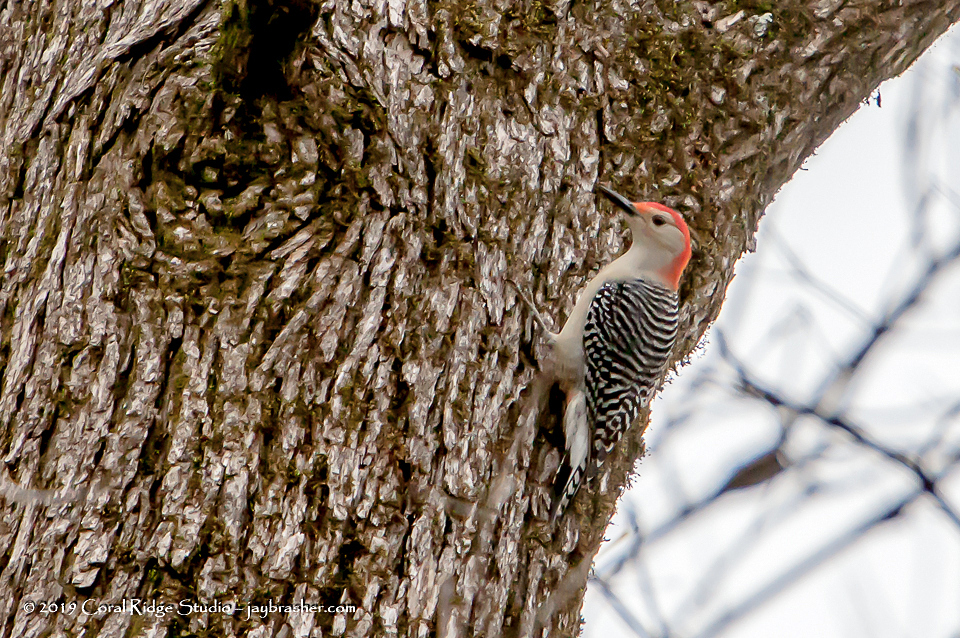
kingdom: Animalia
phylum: Chordata
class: Aves
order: Piciformes
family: Picidae
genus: Melanerpes
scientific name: Melanerpes carolinus
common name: Red-bellied woodpecker
